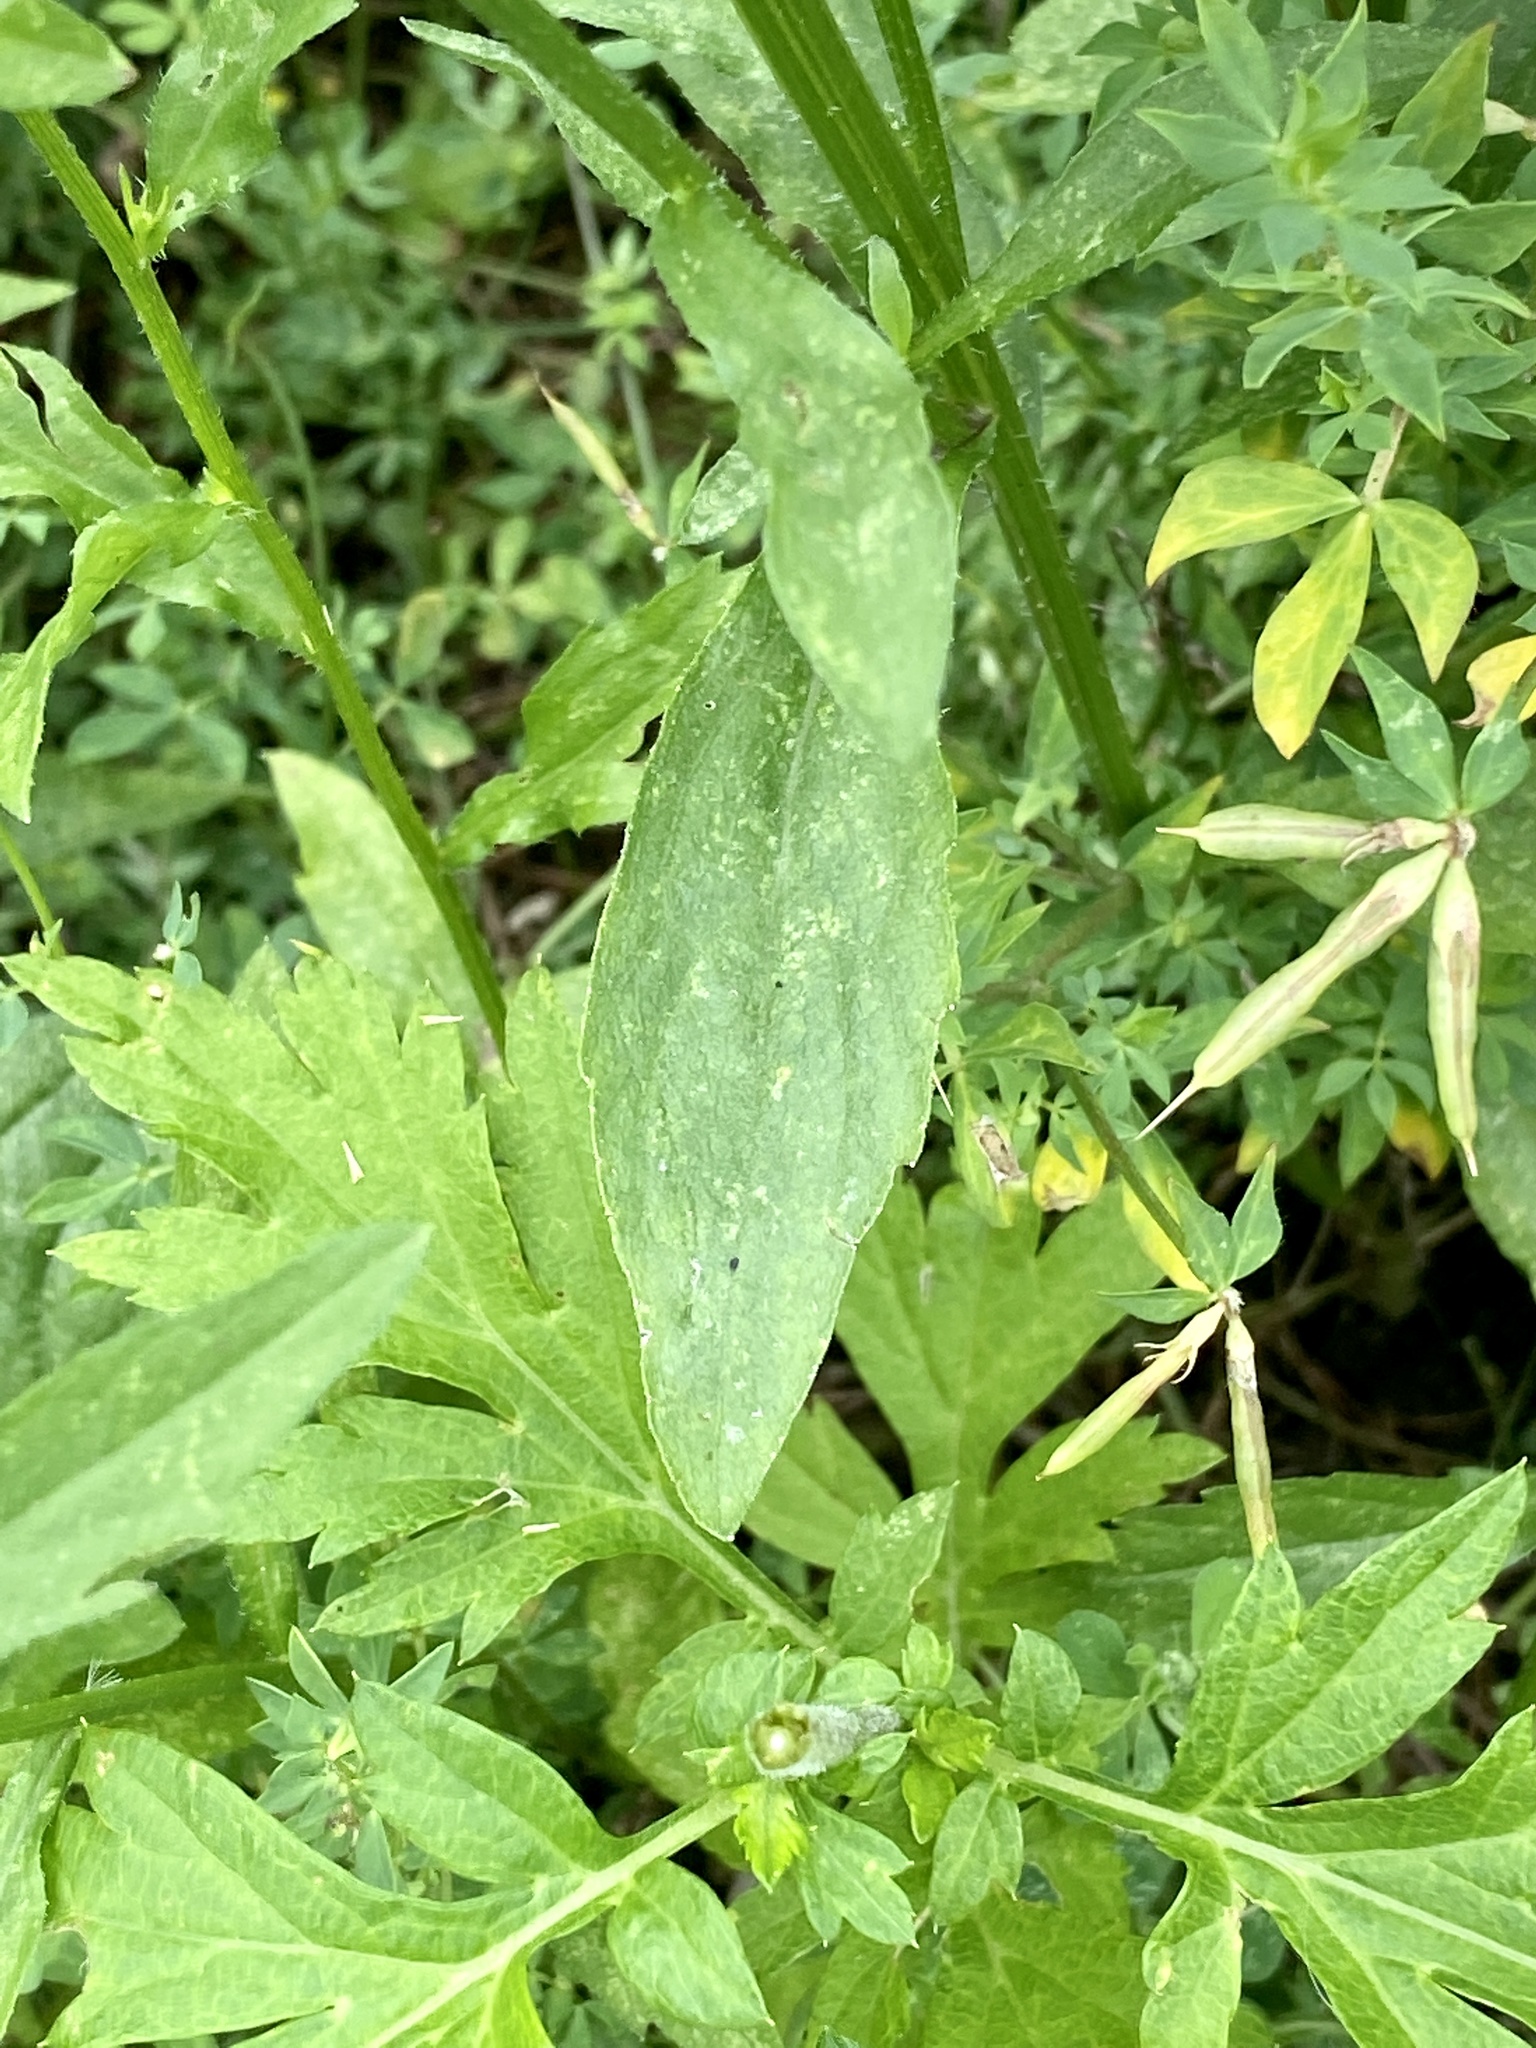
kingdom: Plantae
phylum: Tracheophyta
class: Magnoliopsida
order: Asterales
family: Asteraceae
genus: Erigeron
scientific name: Erigeron annuus
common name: Tall fleabane
